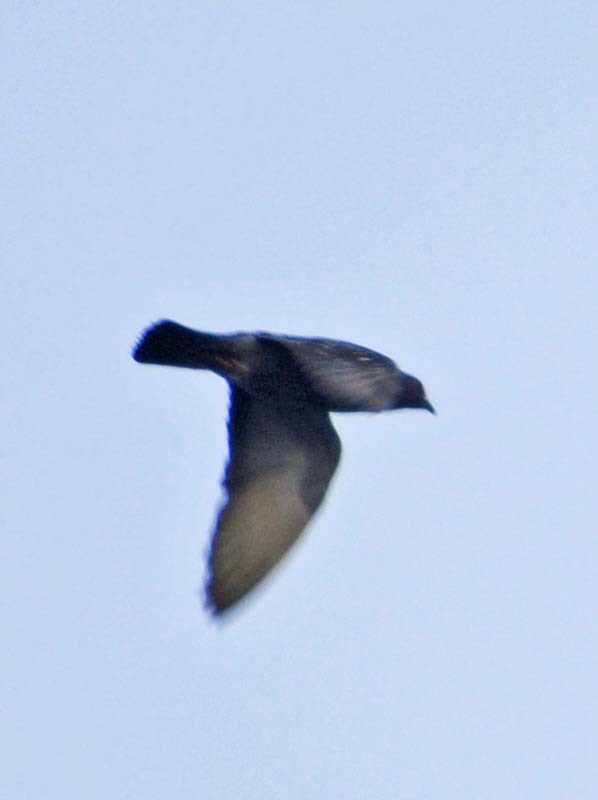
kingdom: Animalia
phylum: Chordata
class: Aves
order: Columbiformes
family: Columbidae
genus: Columba
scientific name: Columba livia
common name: Rock pigeon
